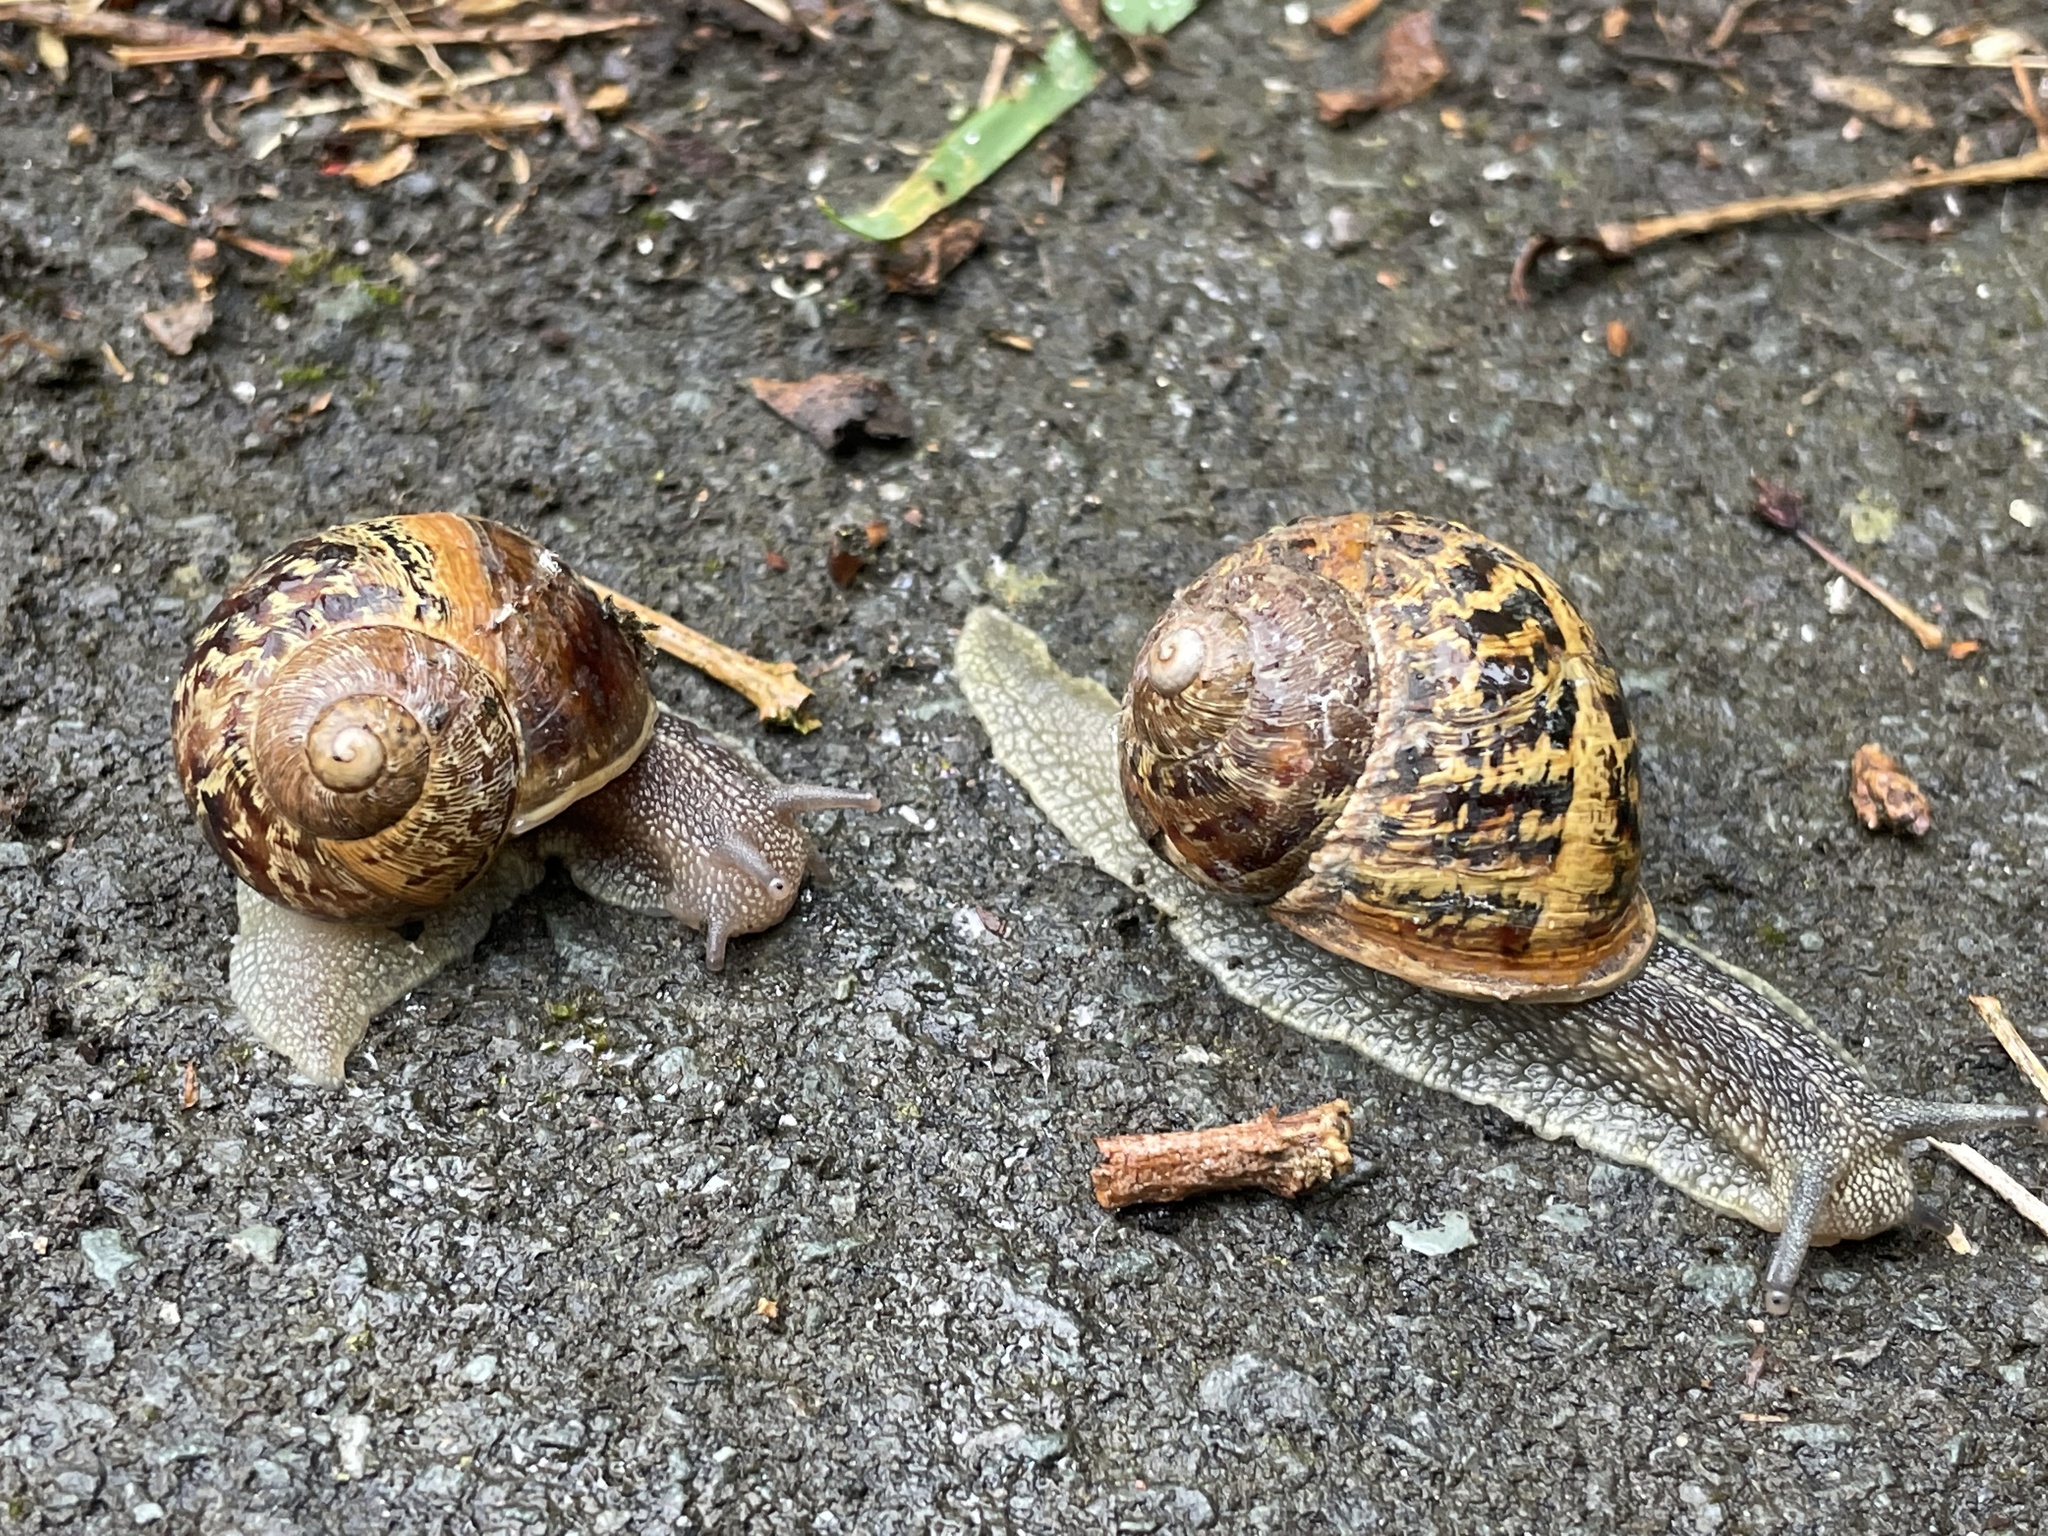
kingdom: Animalia
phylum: Mollusca
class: Gastropoda
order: Stylommatophora
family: Helicidae
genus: Cornu
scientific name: Cornu aspersum
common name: Brown garden snail
